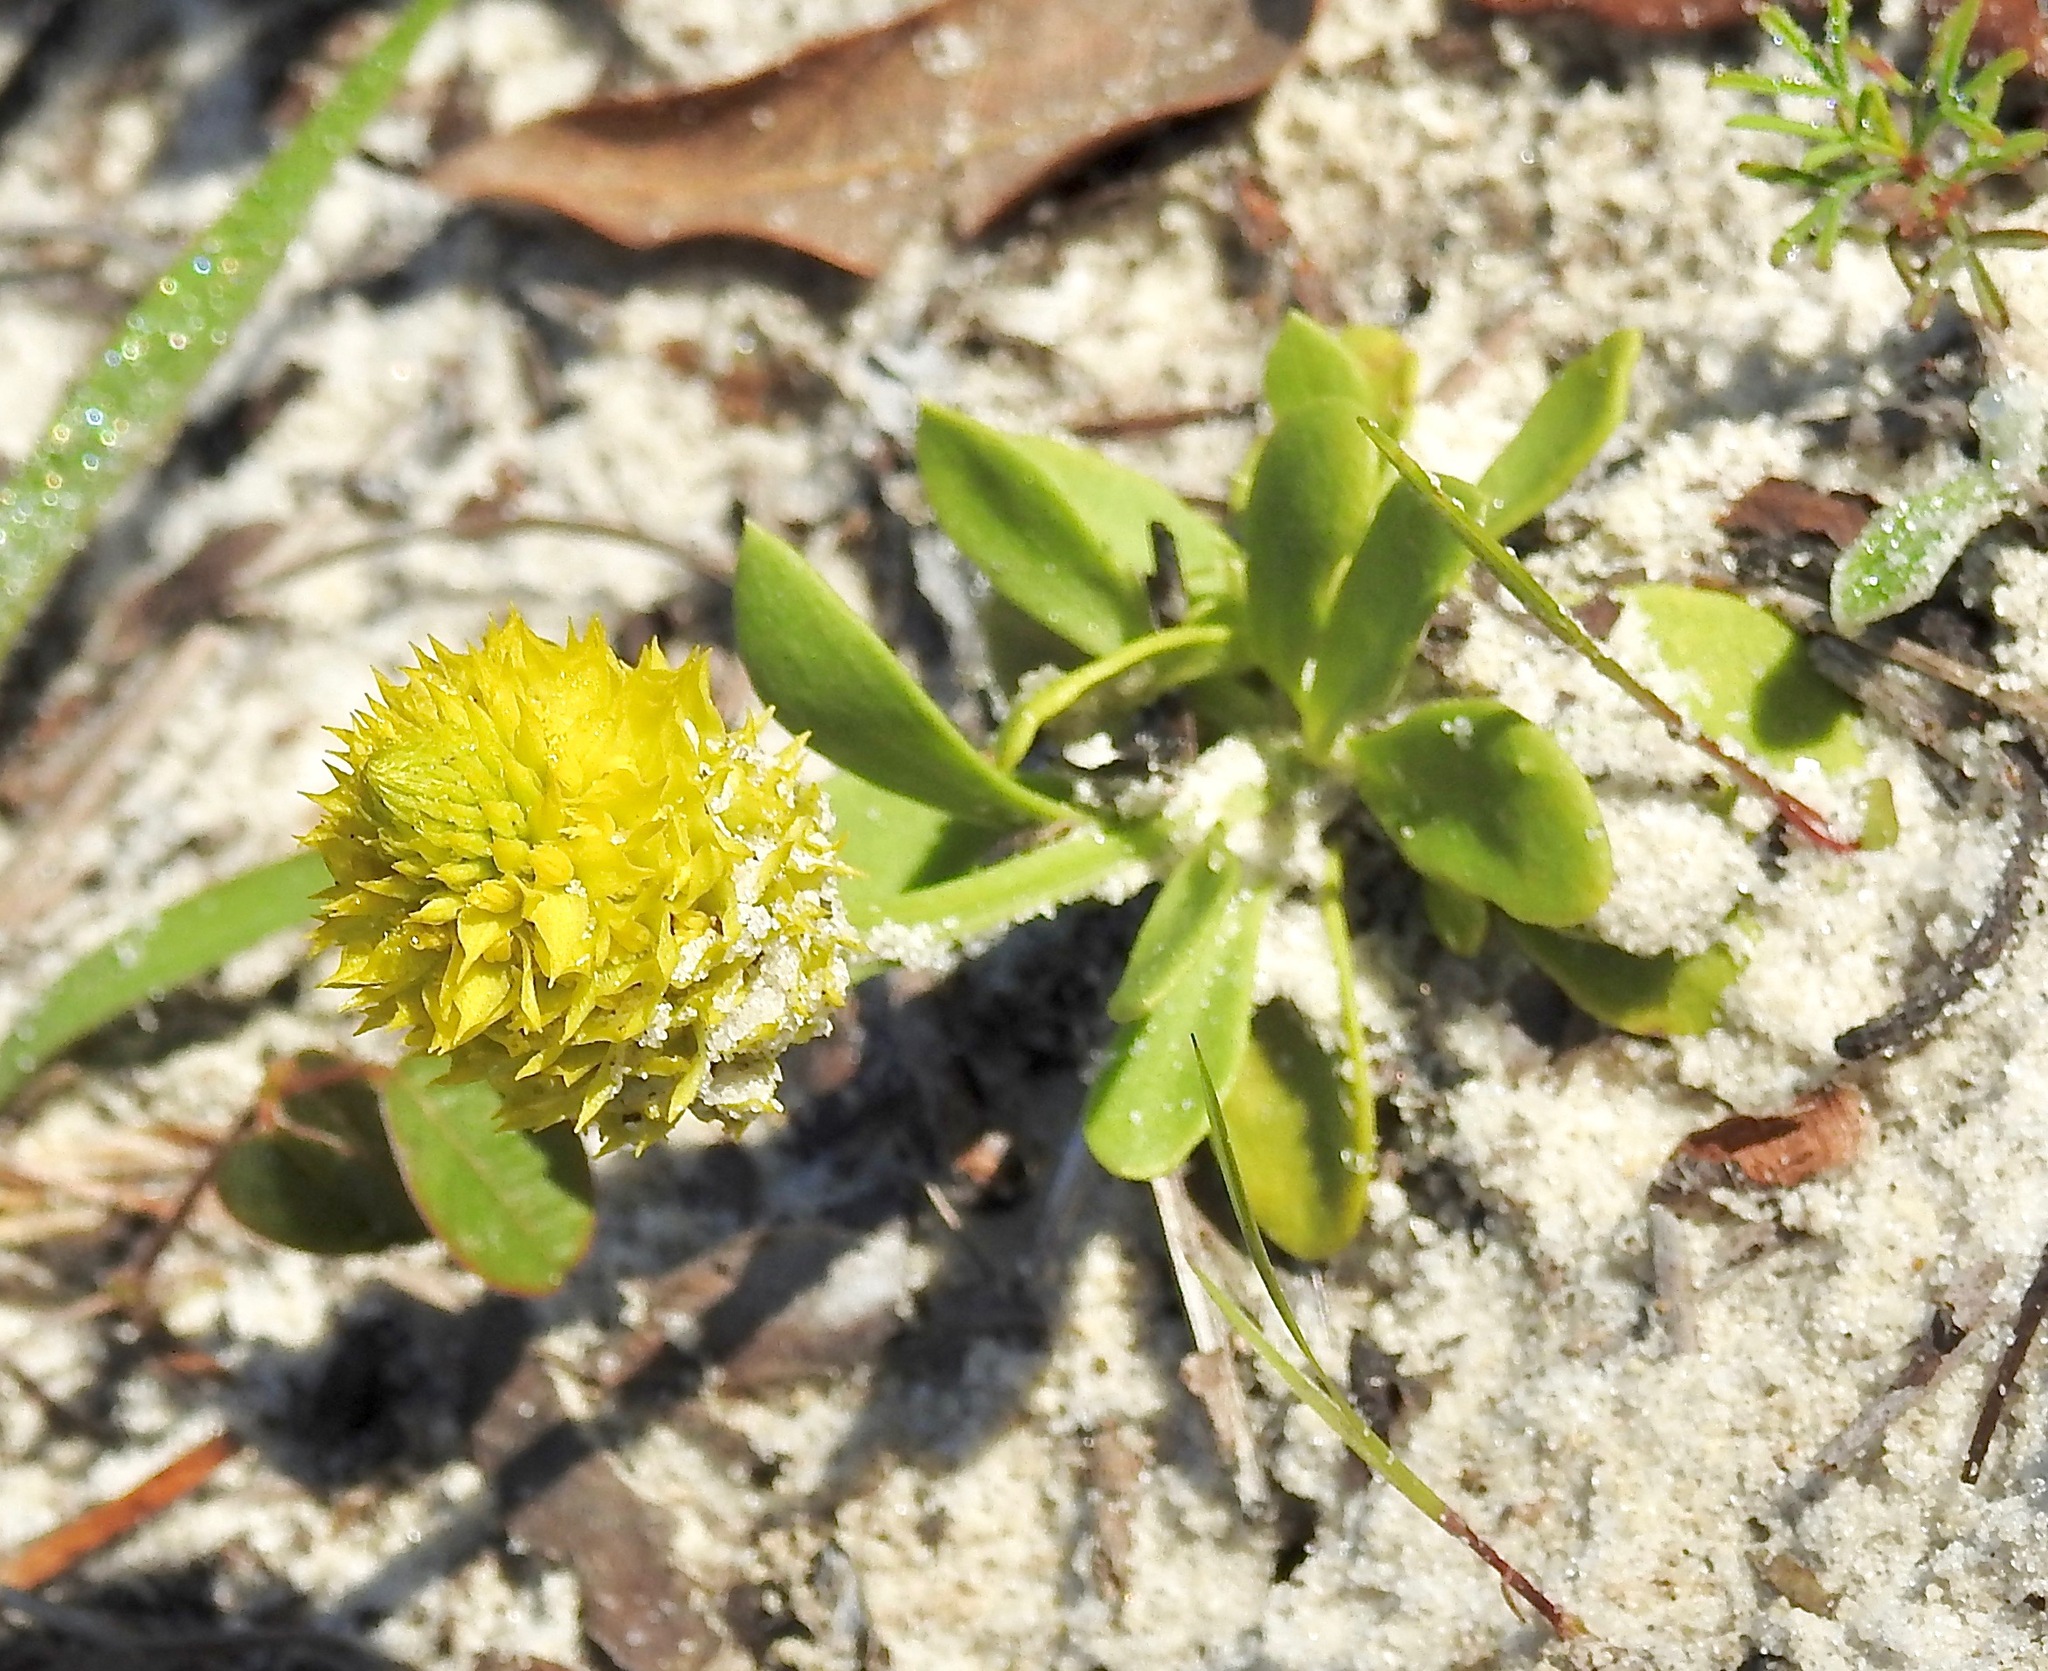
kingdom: Plantae
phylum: Tracheophyta
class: Magnoliopsida
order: Fabales
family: Polygalaceae
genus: Polygala
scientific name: Polygala nana
